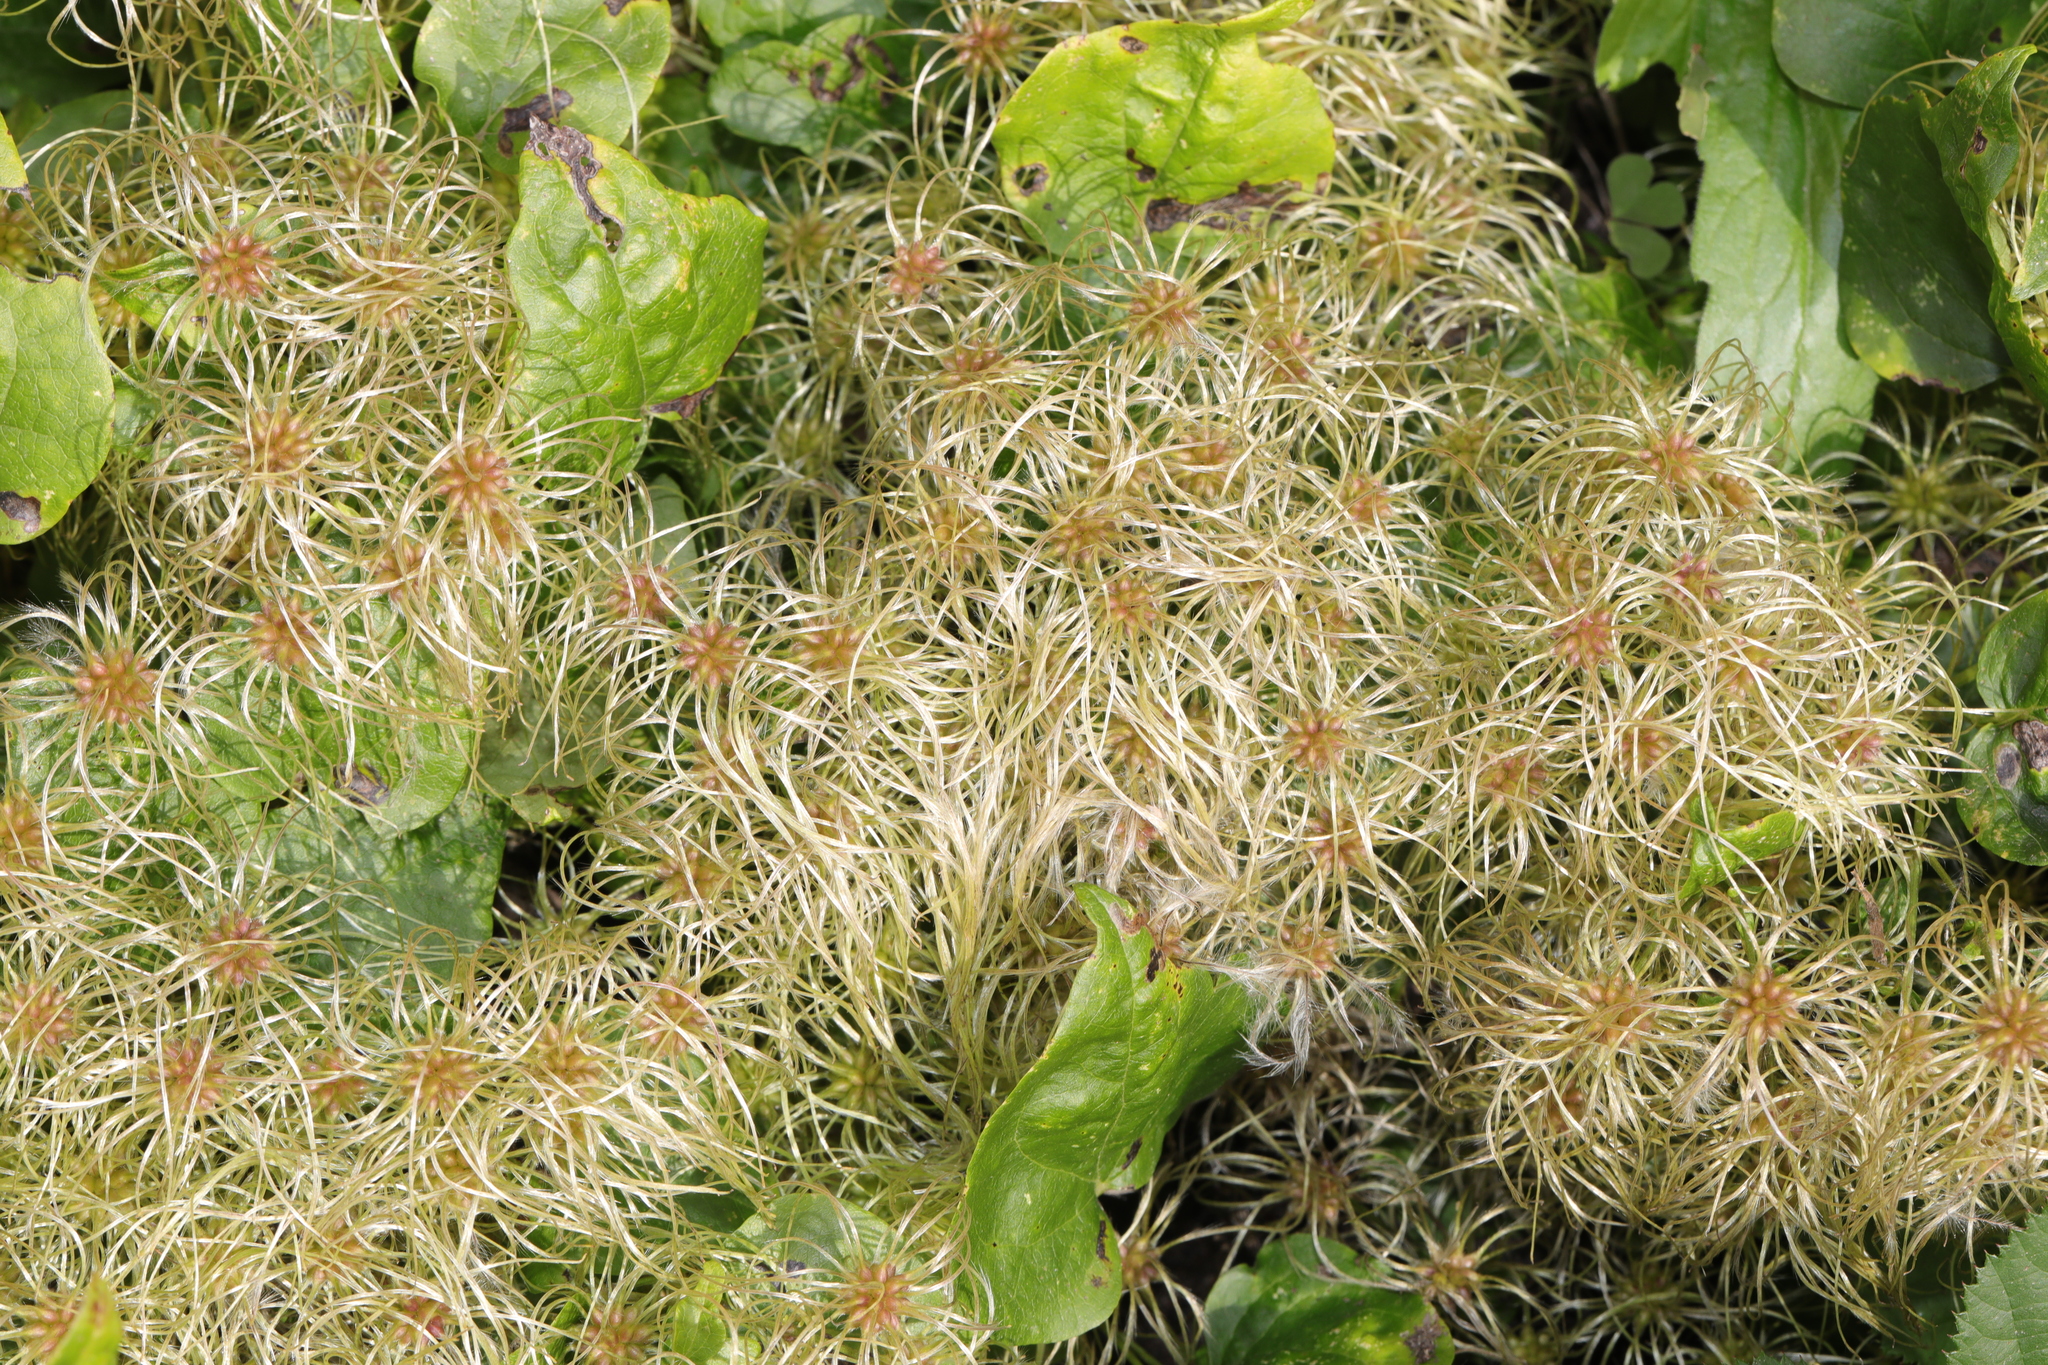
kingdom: Plantae
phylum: Tracheophyta
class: Magnoliopsida
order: Ranunculales
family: Ranunculaceae
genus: Clematis
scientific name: Clematis vitalba
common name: Evergreen clematis
